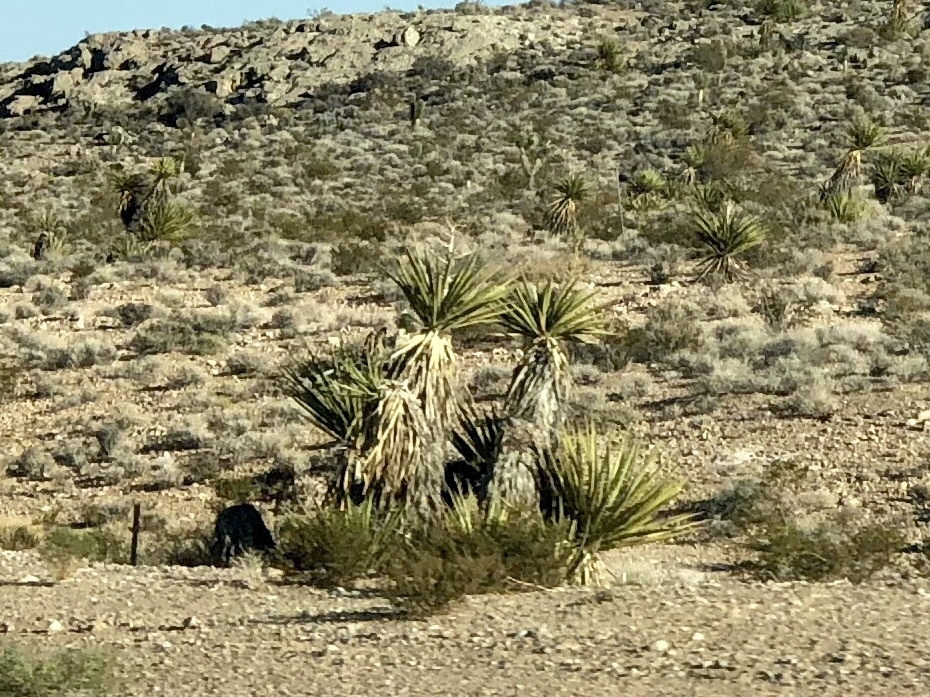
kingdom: Plantae
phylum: Tracheophyta
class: Liliopsida
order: Asparagales
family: Asparagaceae
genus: Yucca
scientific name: Yucca schidigera
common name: Mojave yucca
